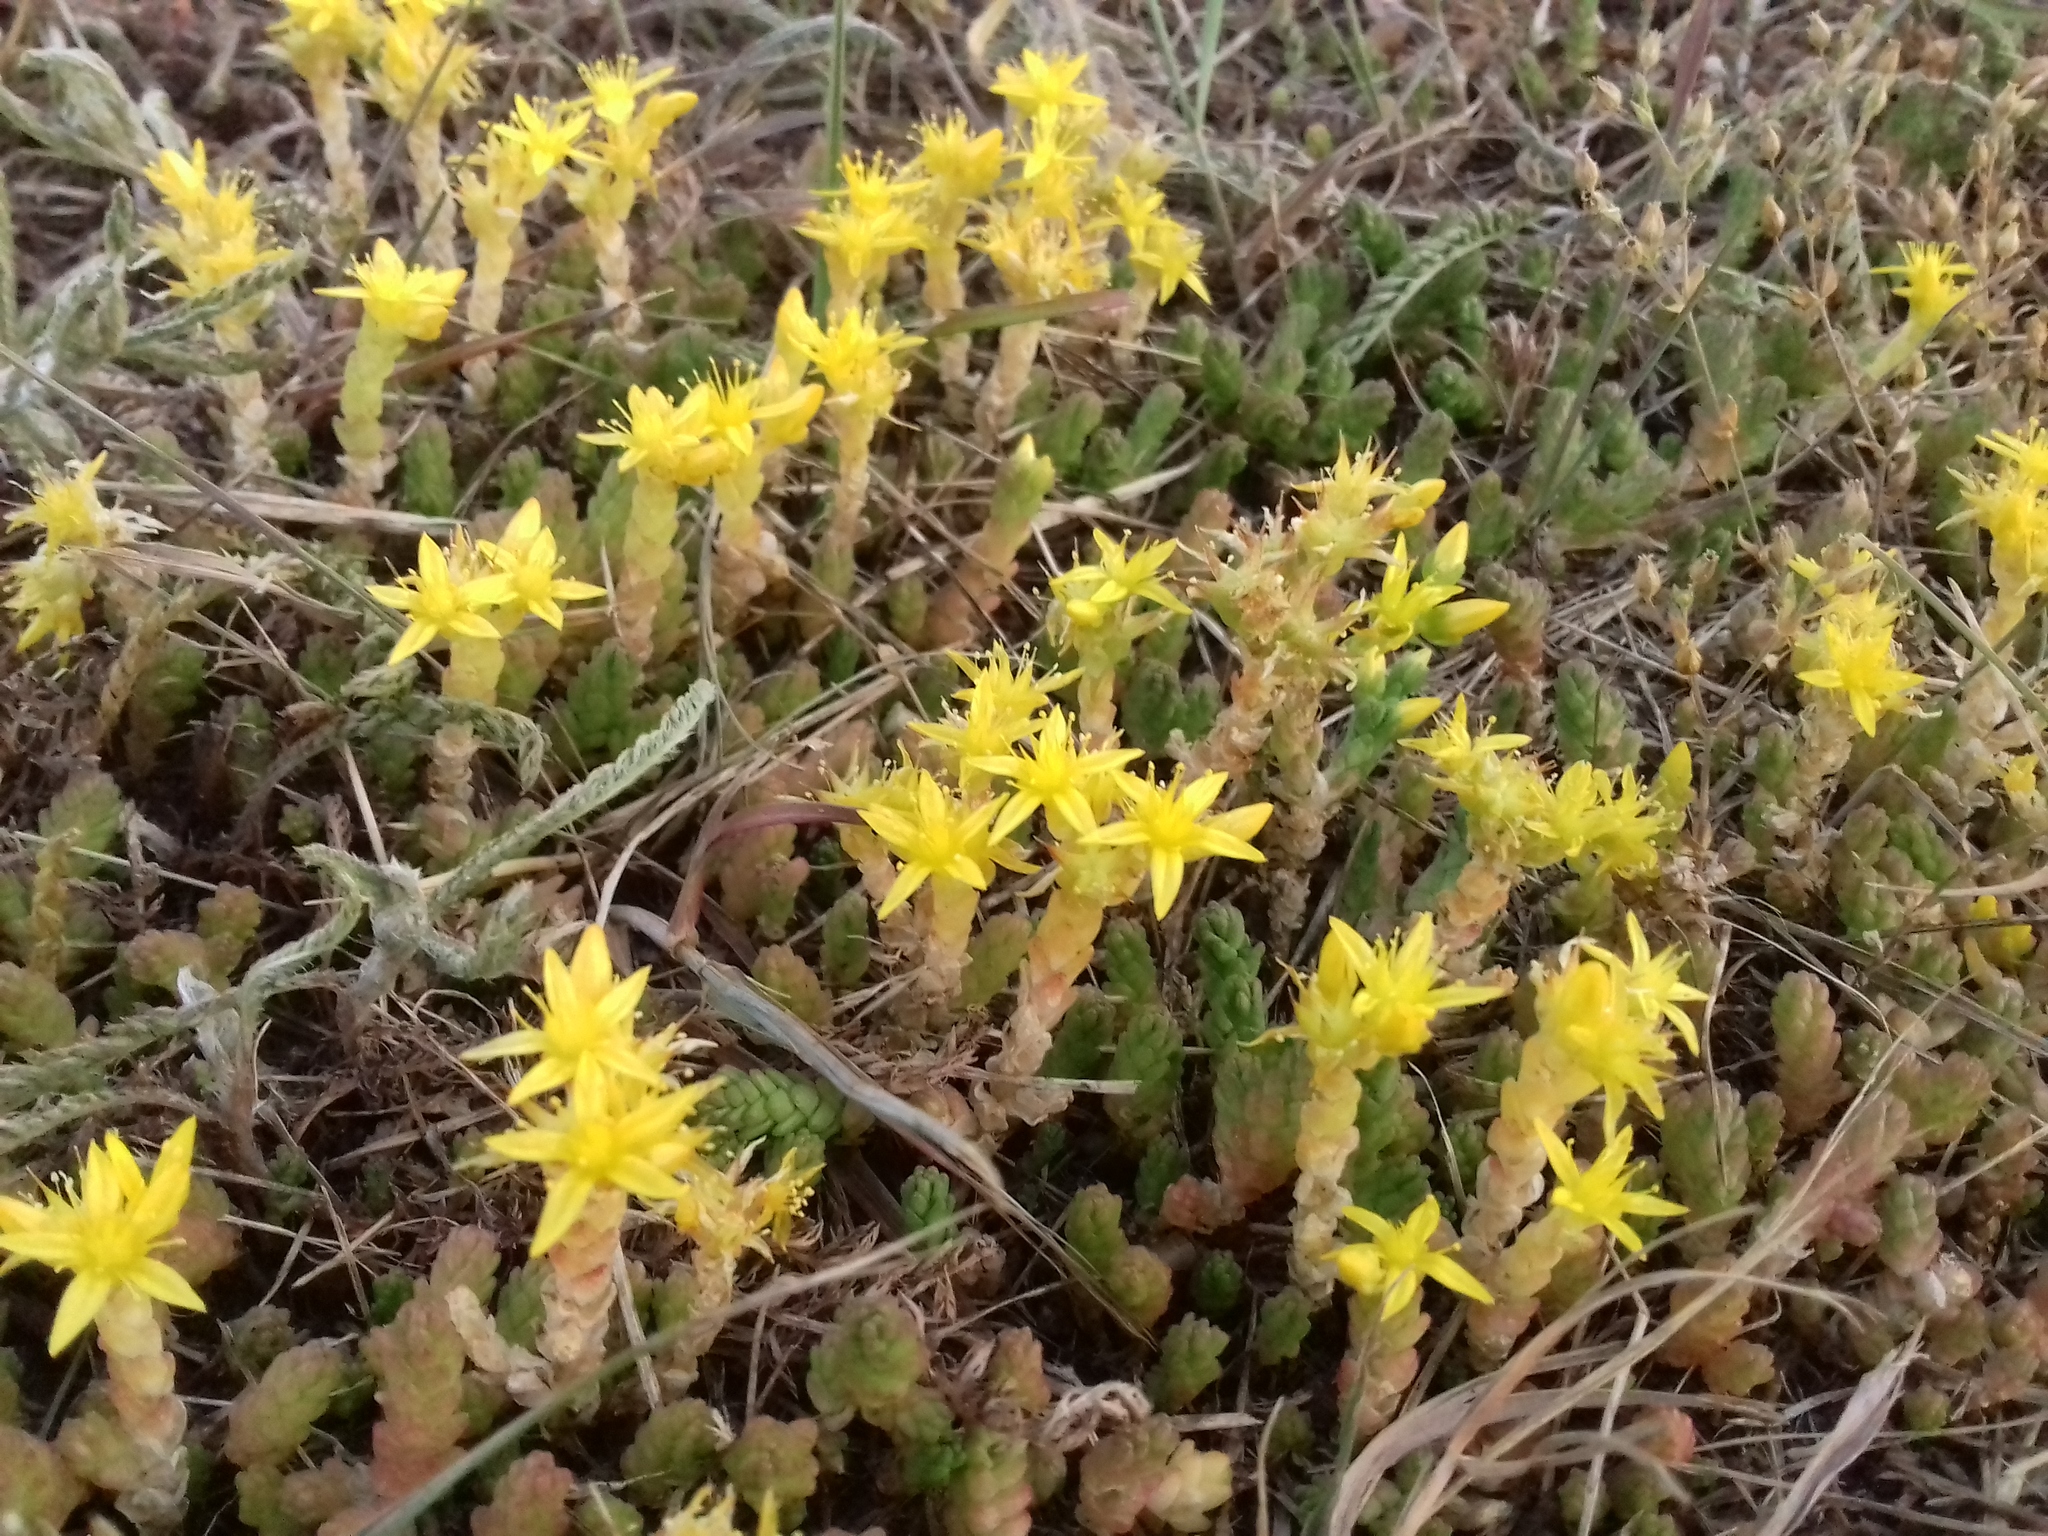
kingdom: Plantae
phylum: Tracheophyta
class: Magnoliopsida
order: Saxifragales
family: Crassulaceae
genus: Sedum
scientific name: Sedum acre
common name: Biting stonecrop
